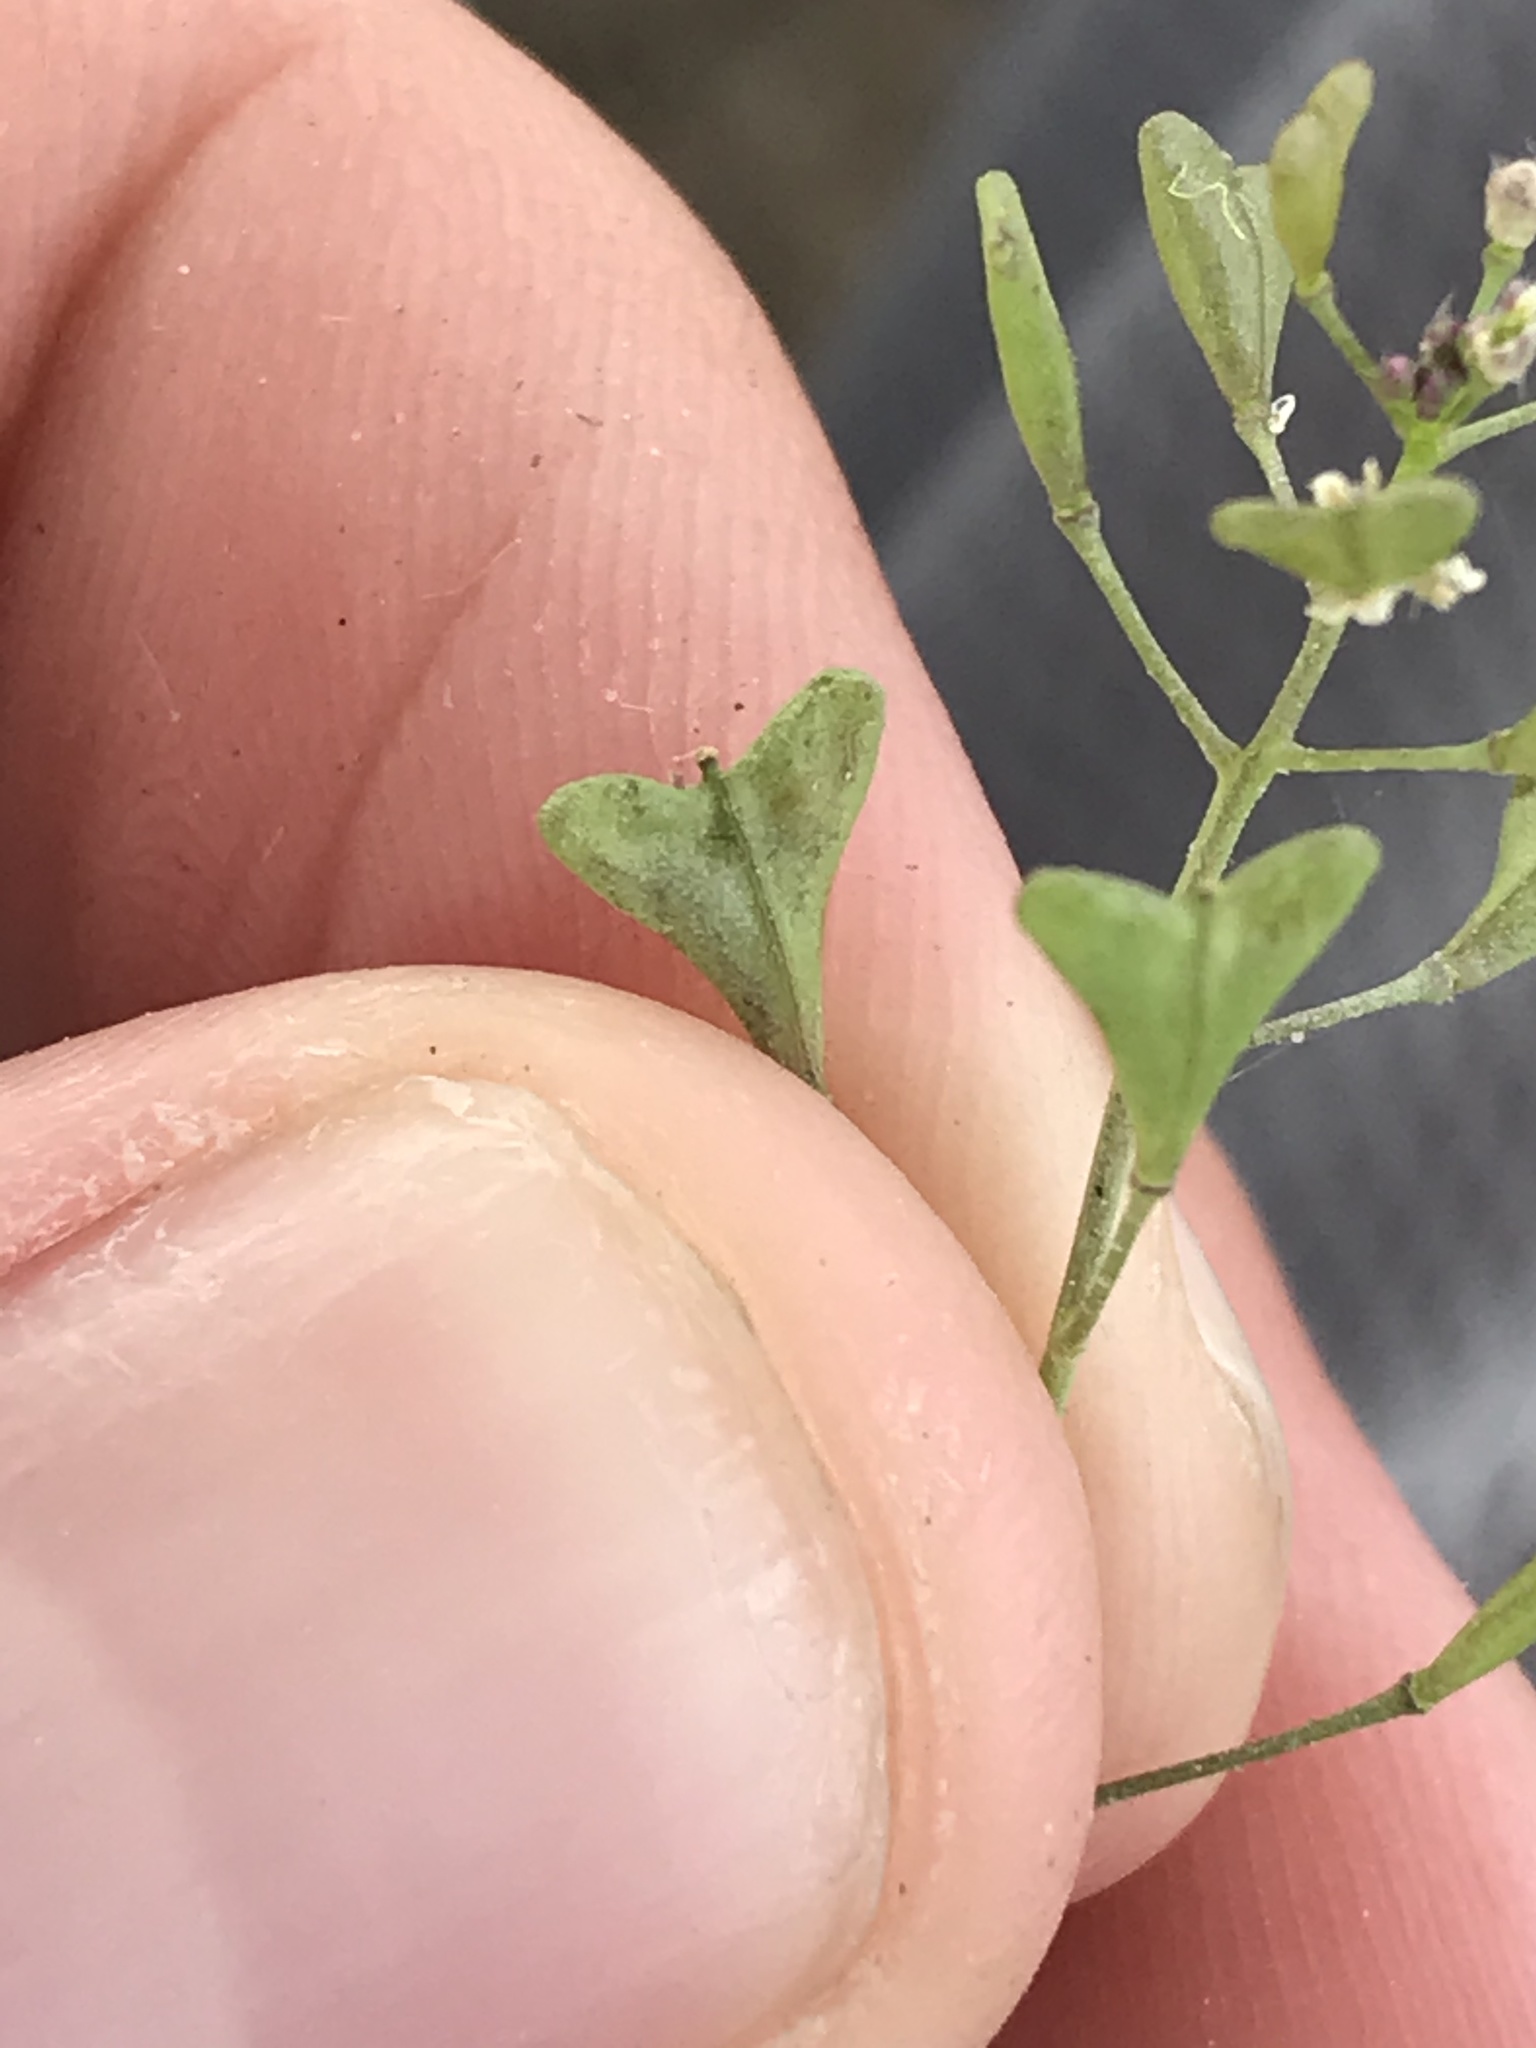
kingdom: Plantae
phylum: Tracheophyta
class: Magnoliopsida
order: Brassicales
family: Brassicaceae
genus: Capsella
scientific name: Capsella bursa-pastoris
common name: Shepherd's purse
